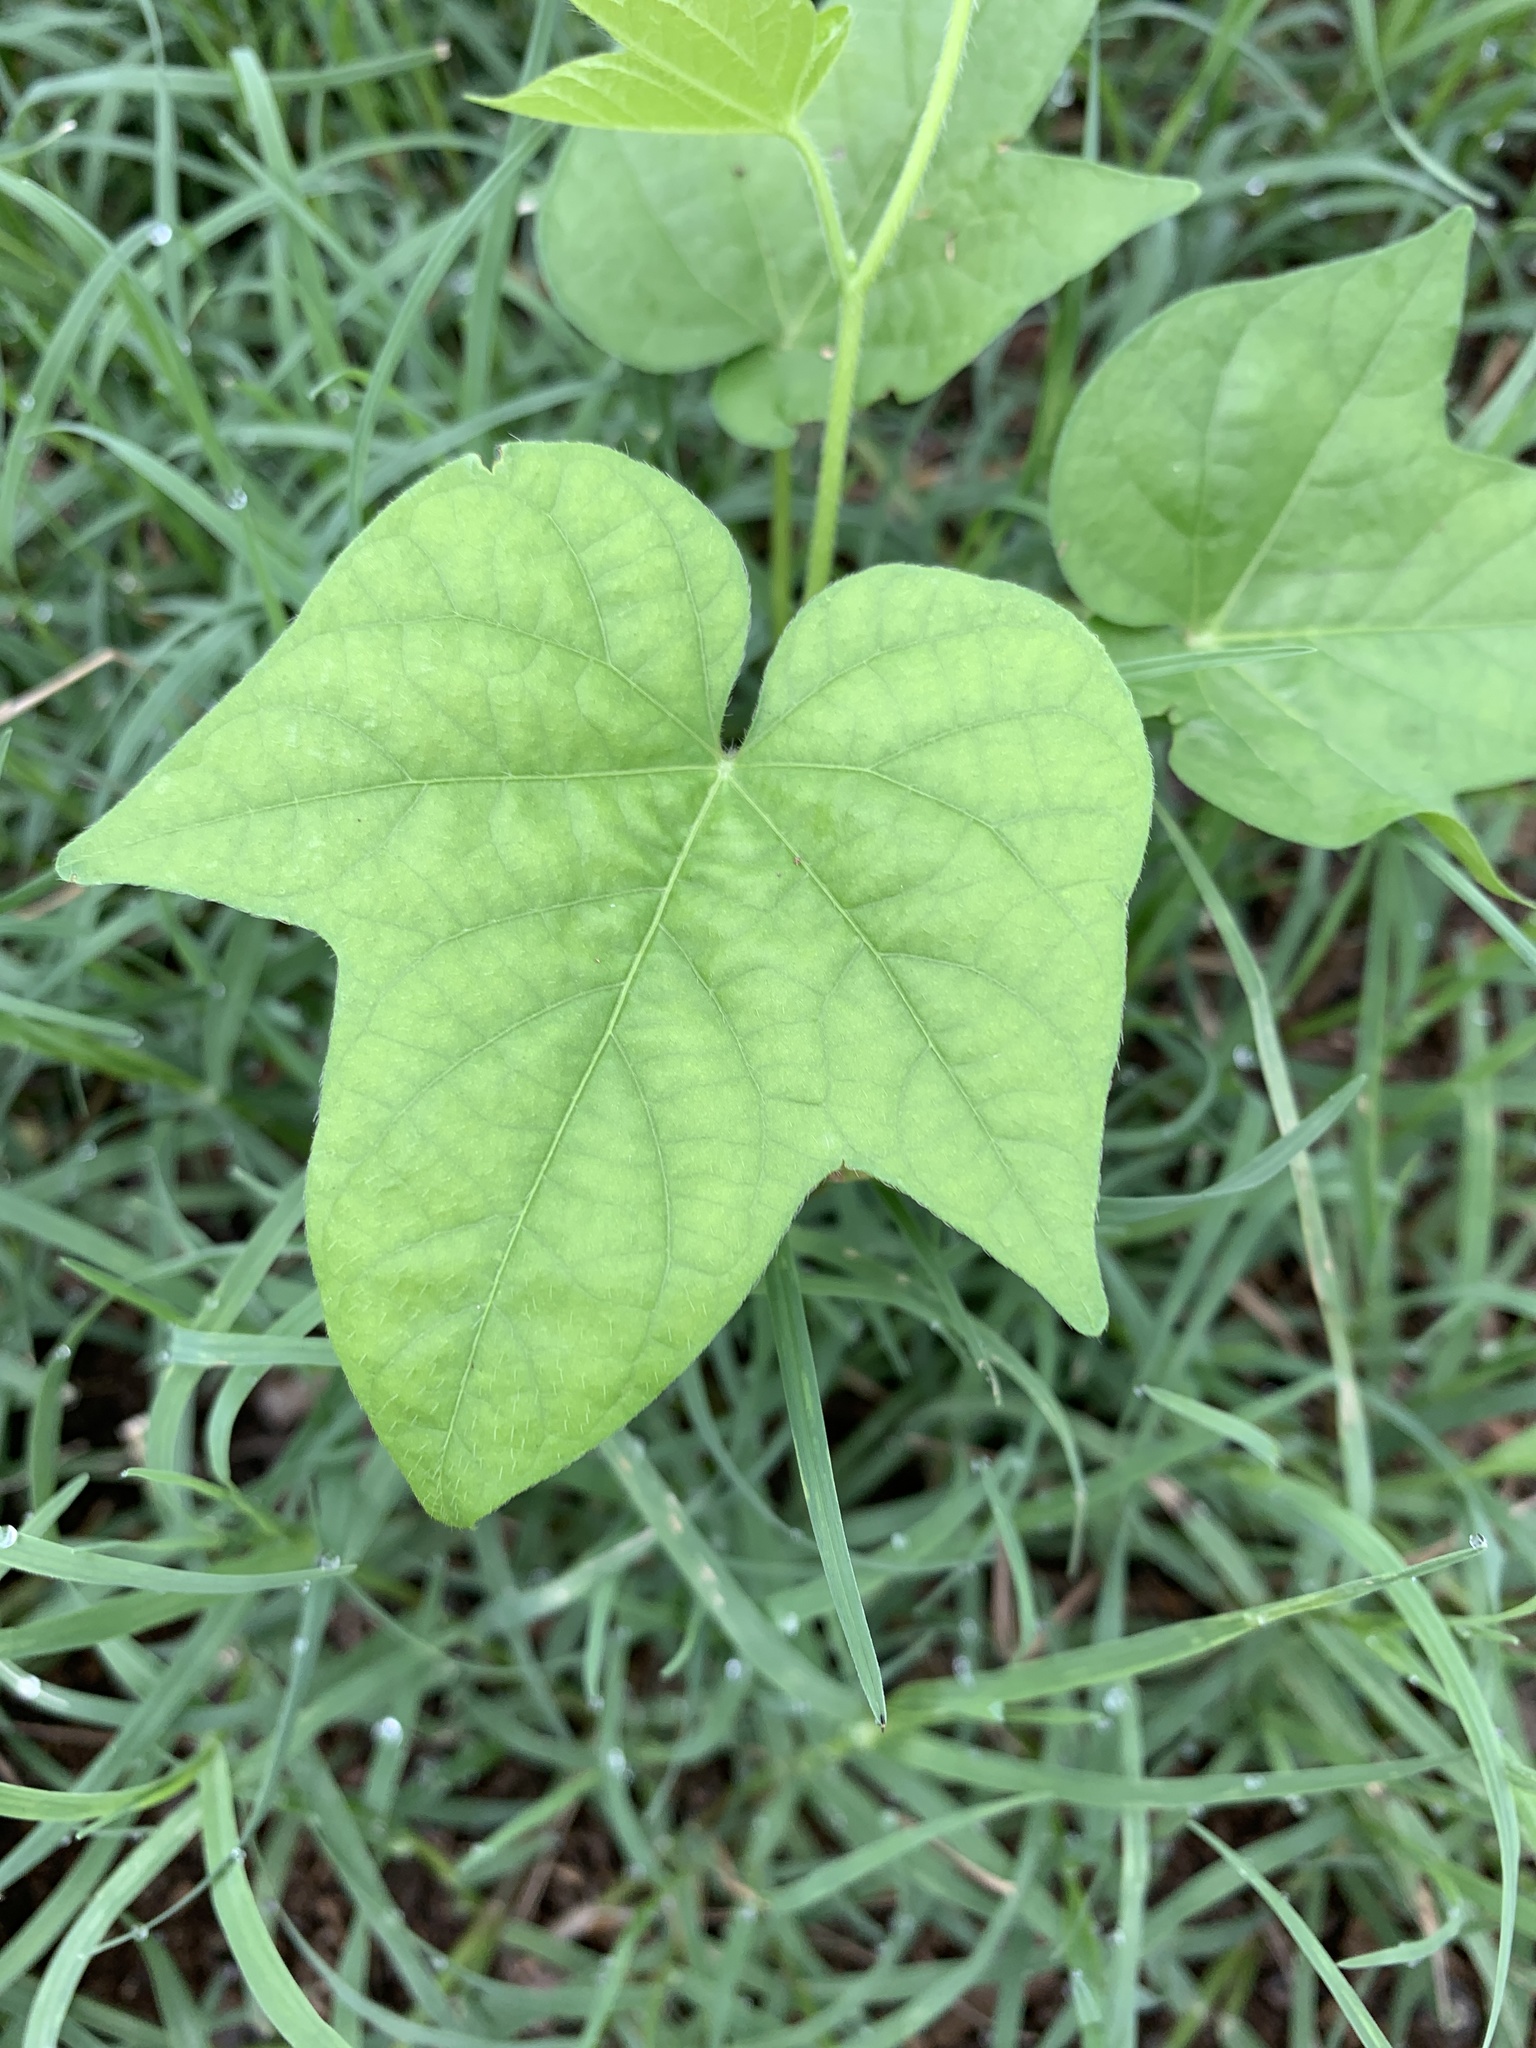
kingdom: Plantae
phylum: Tracheophyta
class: Magnoliopsida
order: Solanales
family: Convolvulaceae
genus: Ipomoea
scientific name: Ipomoea
